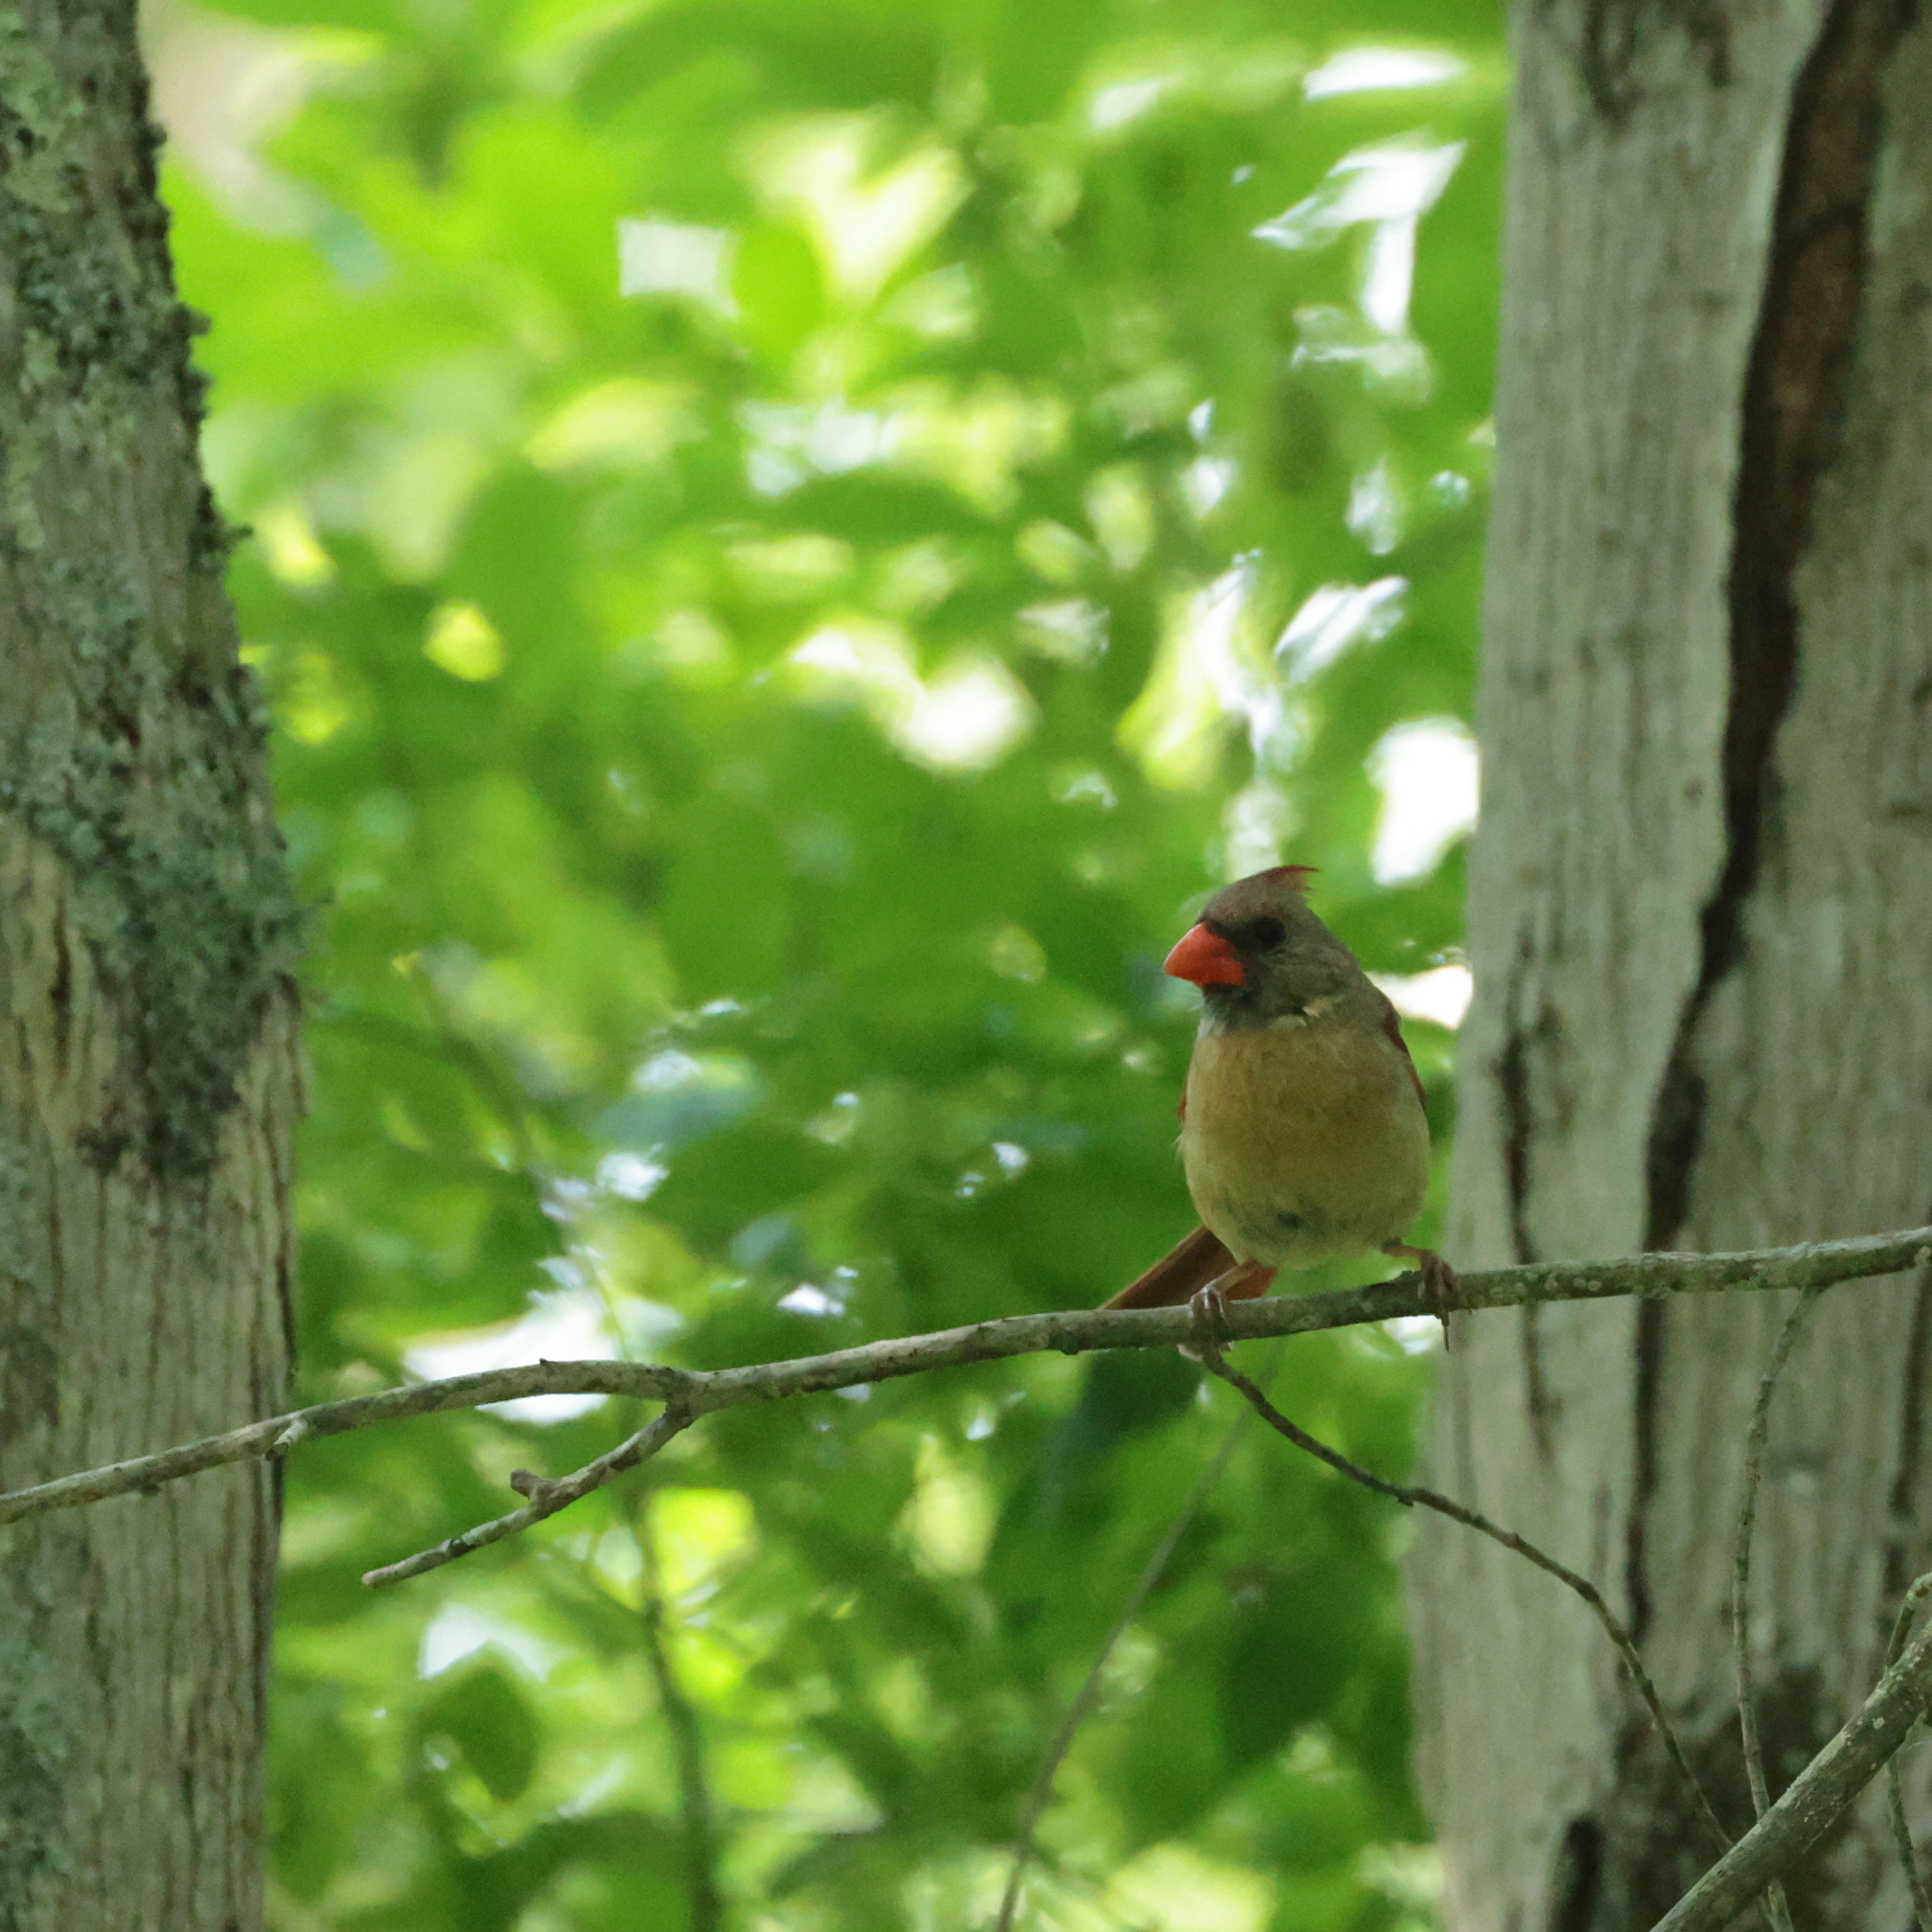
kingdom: Animalia
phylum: Chordata
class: Aves
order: Passeriformes
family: Cardinalidae
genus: Cardinalis
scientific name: Cardinalis cardinalis
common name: Northern cardinal
